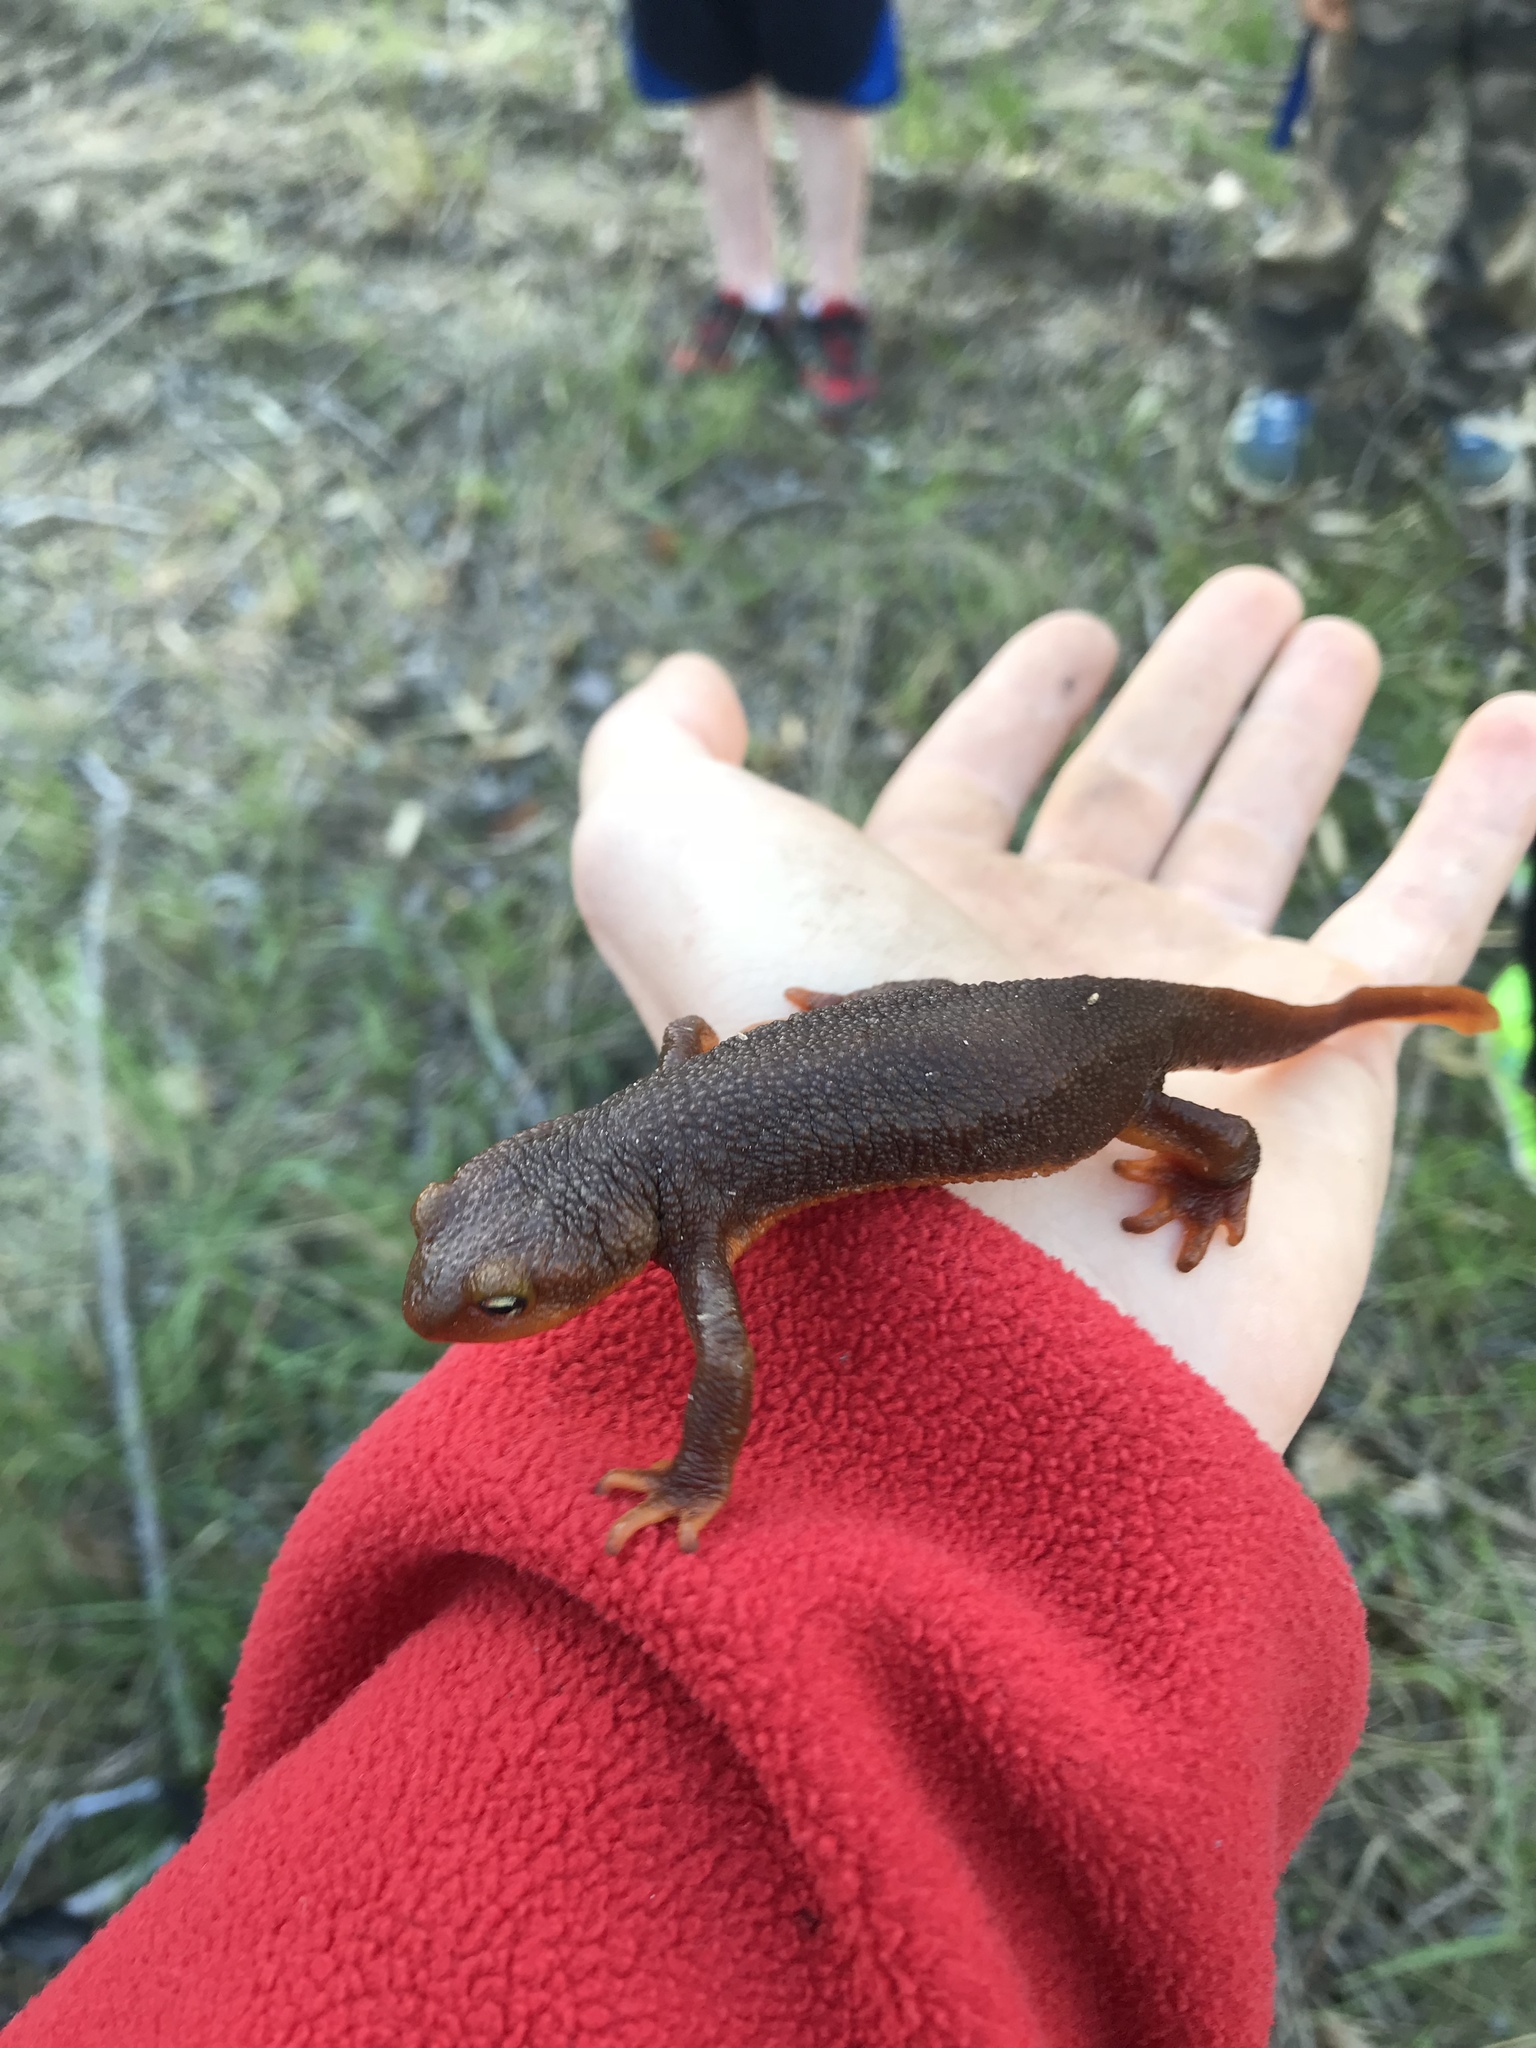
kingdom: Animalia
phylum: Chordata
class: Amphibia
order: Caudata
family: Salamandridae
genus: Taricha
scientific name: Taricha torosa
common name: California newt
